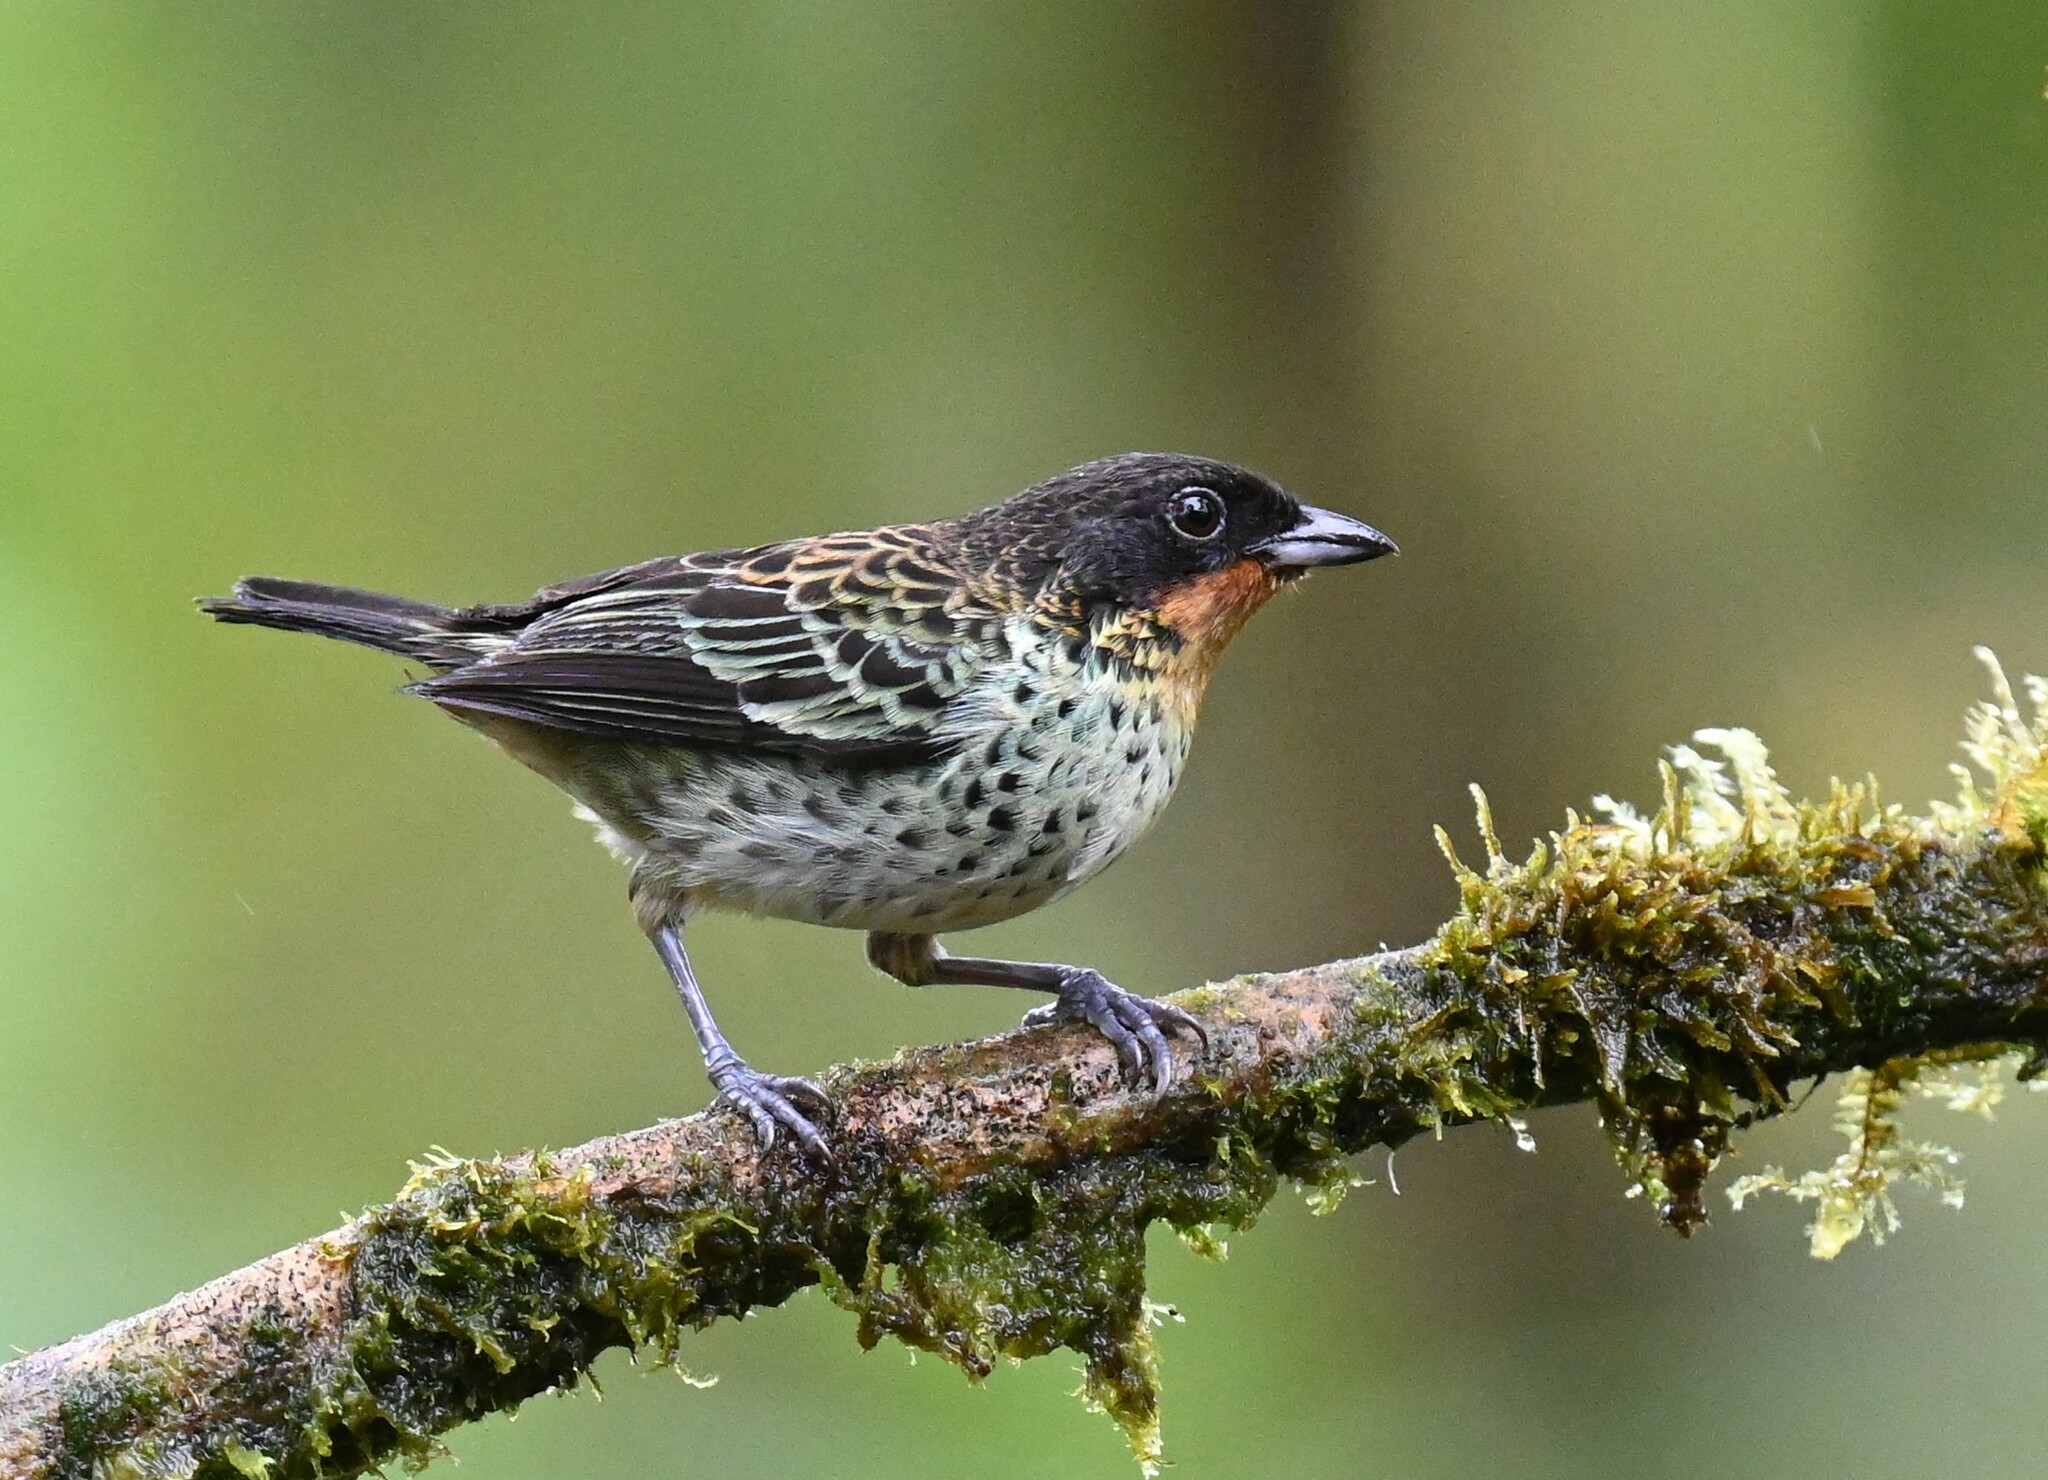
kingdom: Animalia
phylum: Chordata
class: Aves
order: Passeriformes
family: Thraupidae
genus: Ixothraupis
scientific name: Ixothraupis rufigula
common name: Rufous-throated tanager
